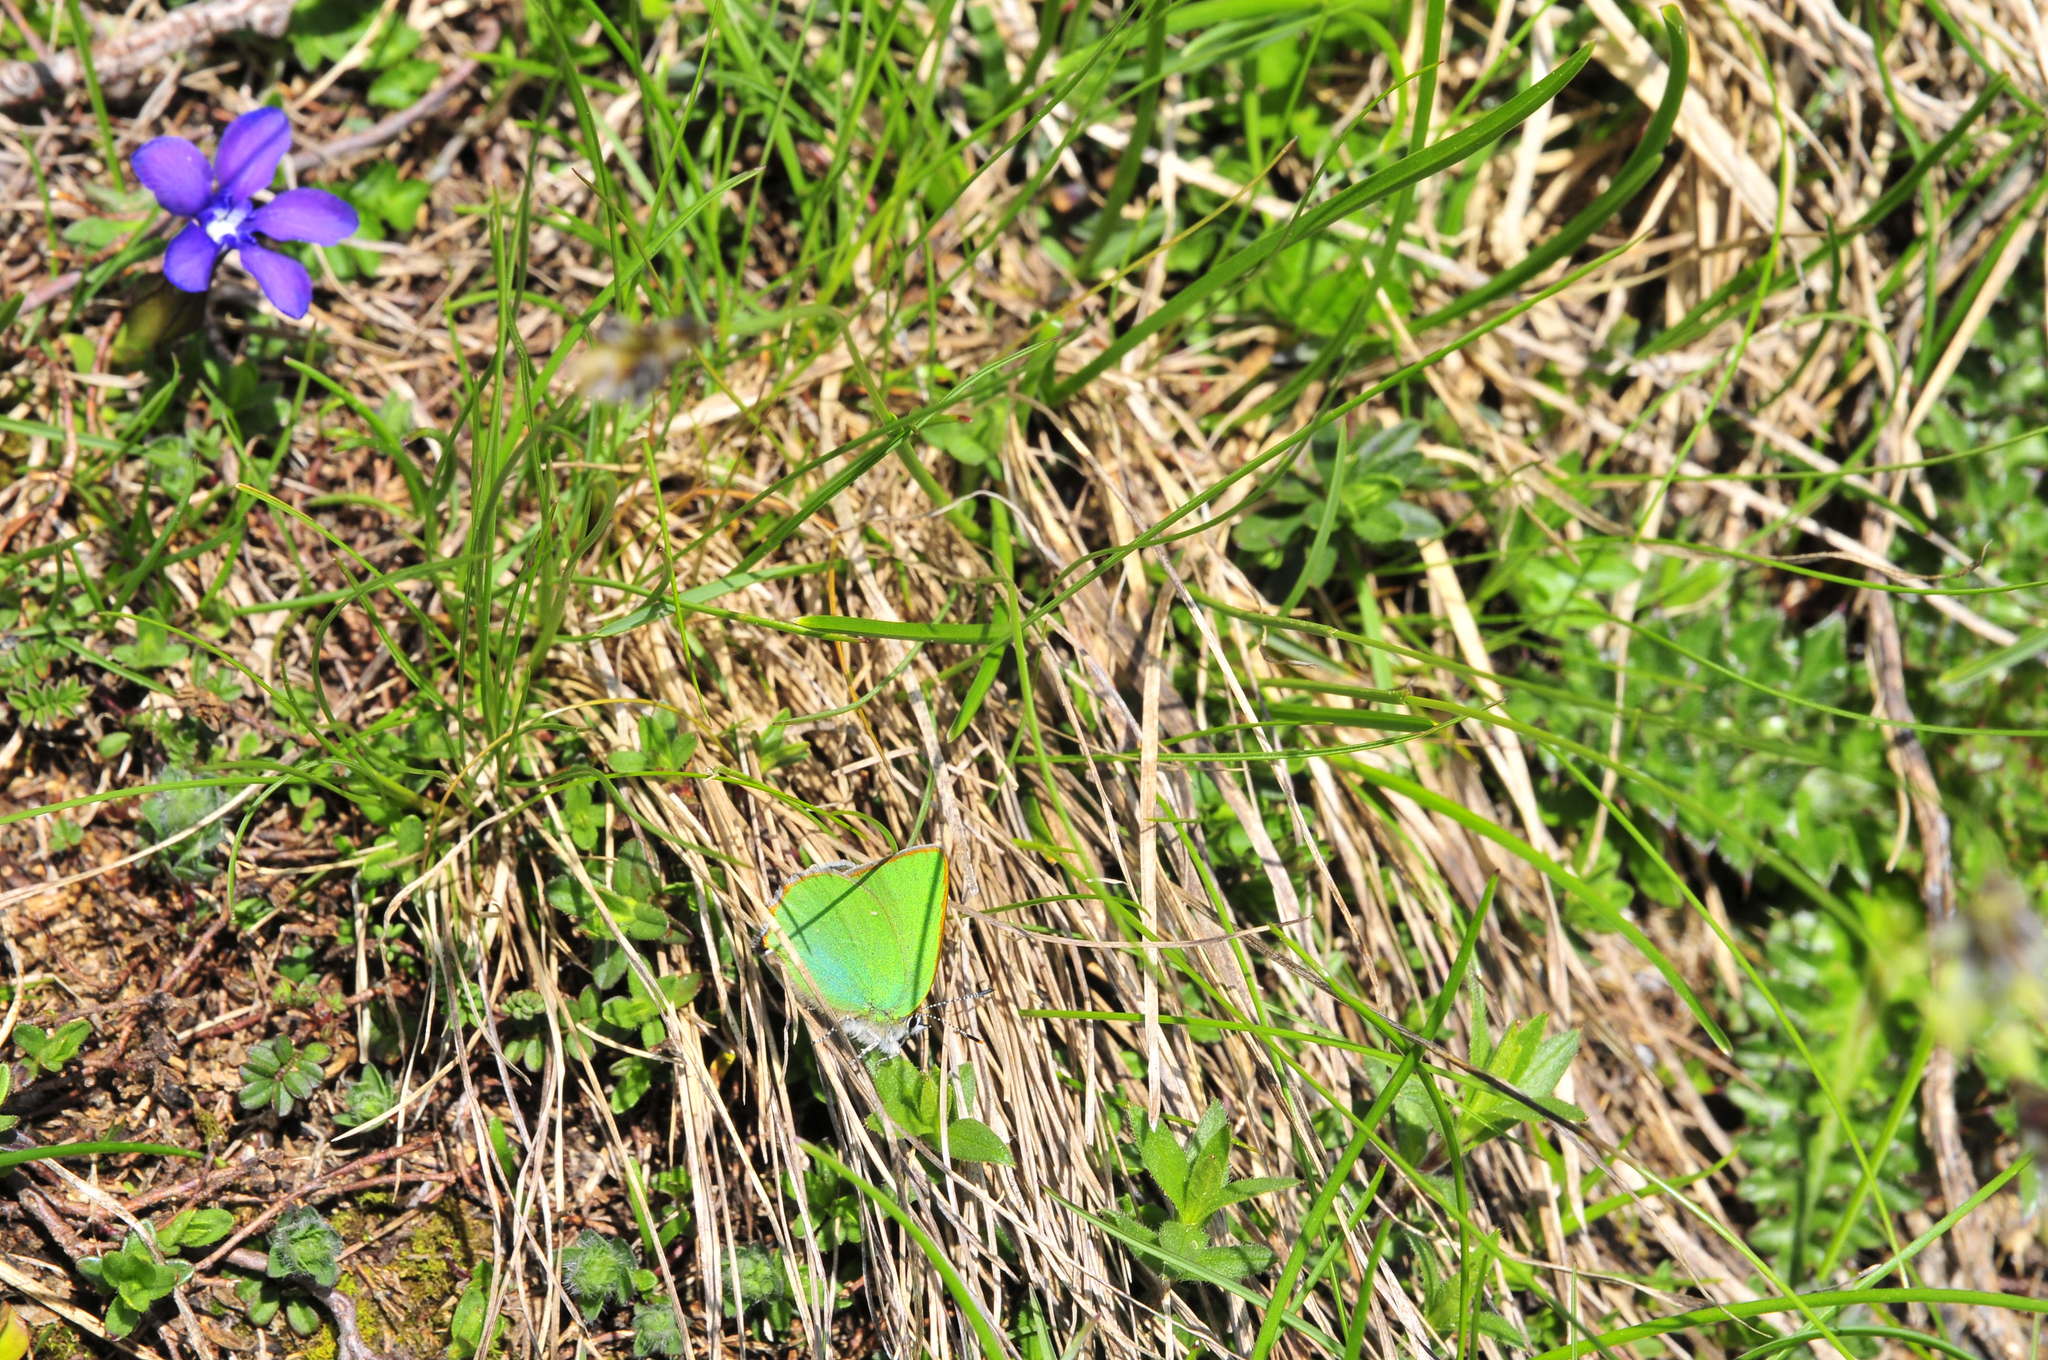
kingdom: Animalia
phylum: Arthropoda
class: Insecta
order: Lepidoptera
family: Lycaenidae
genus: Callophrys
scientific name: Callophrys rubi
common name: Green hairstreak
